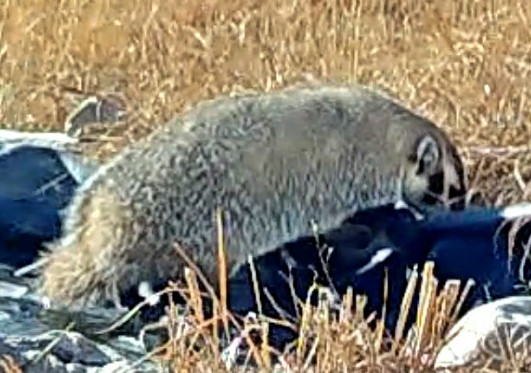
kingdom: Animalia
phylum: Chordata
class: Mammalia
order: Carnivora
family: Mustelidae
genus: Taxidea
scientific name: Taxidea taxus
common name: American badger
